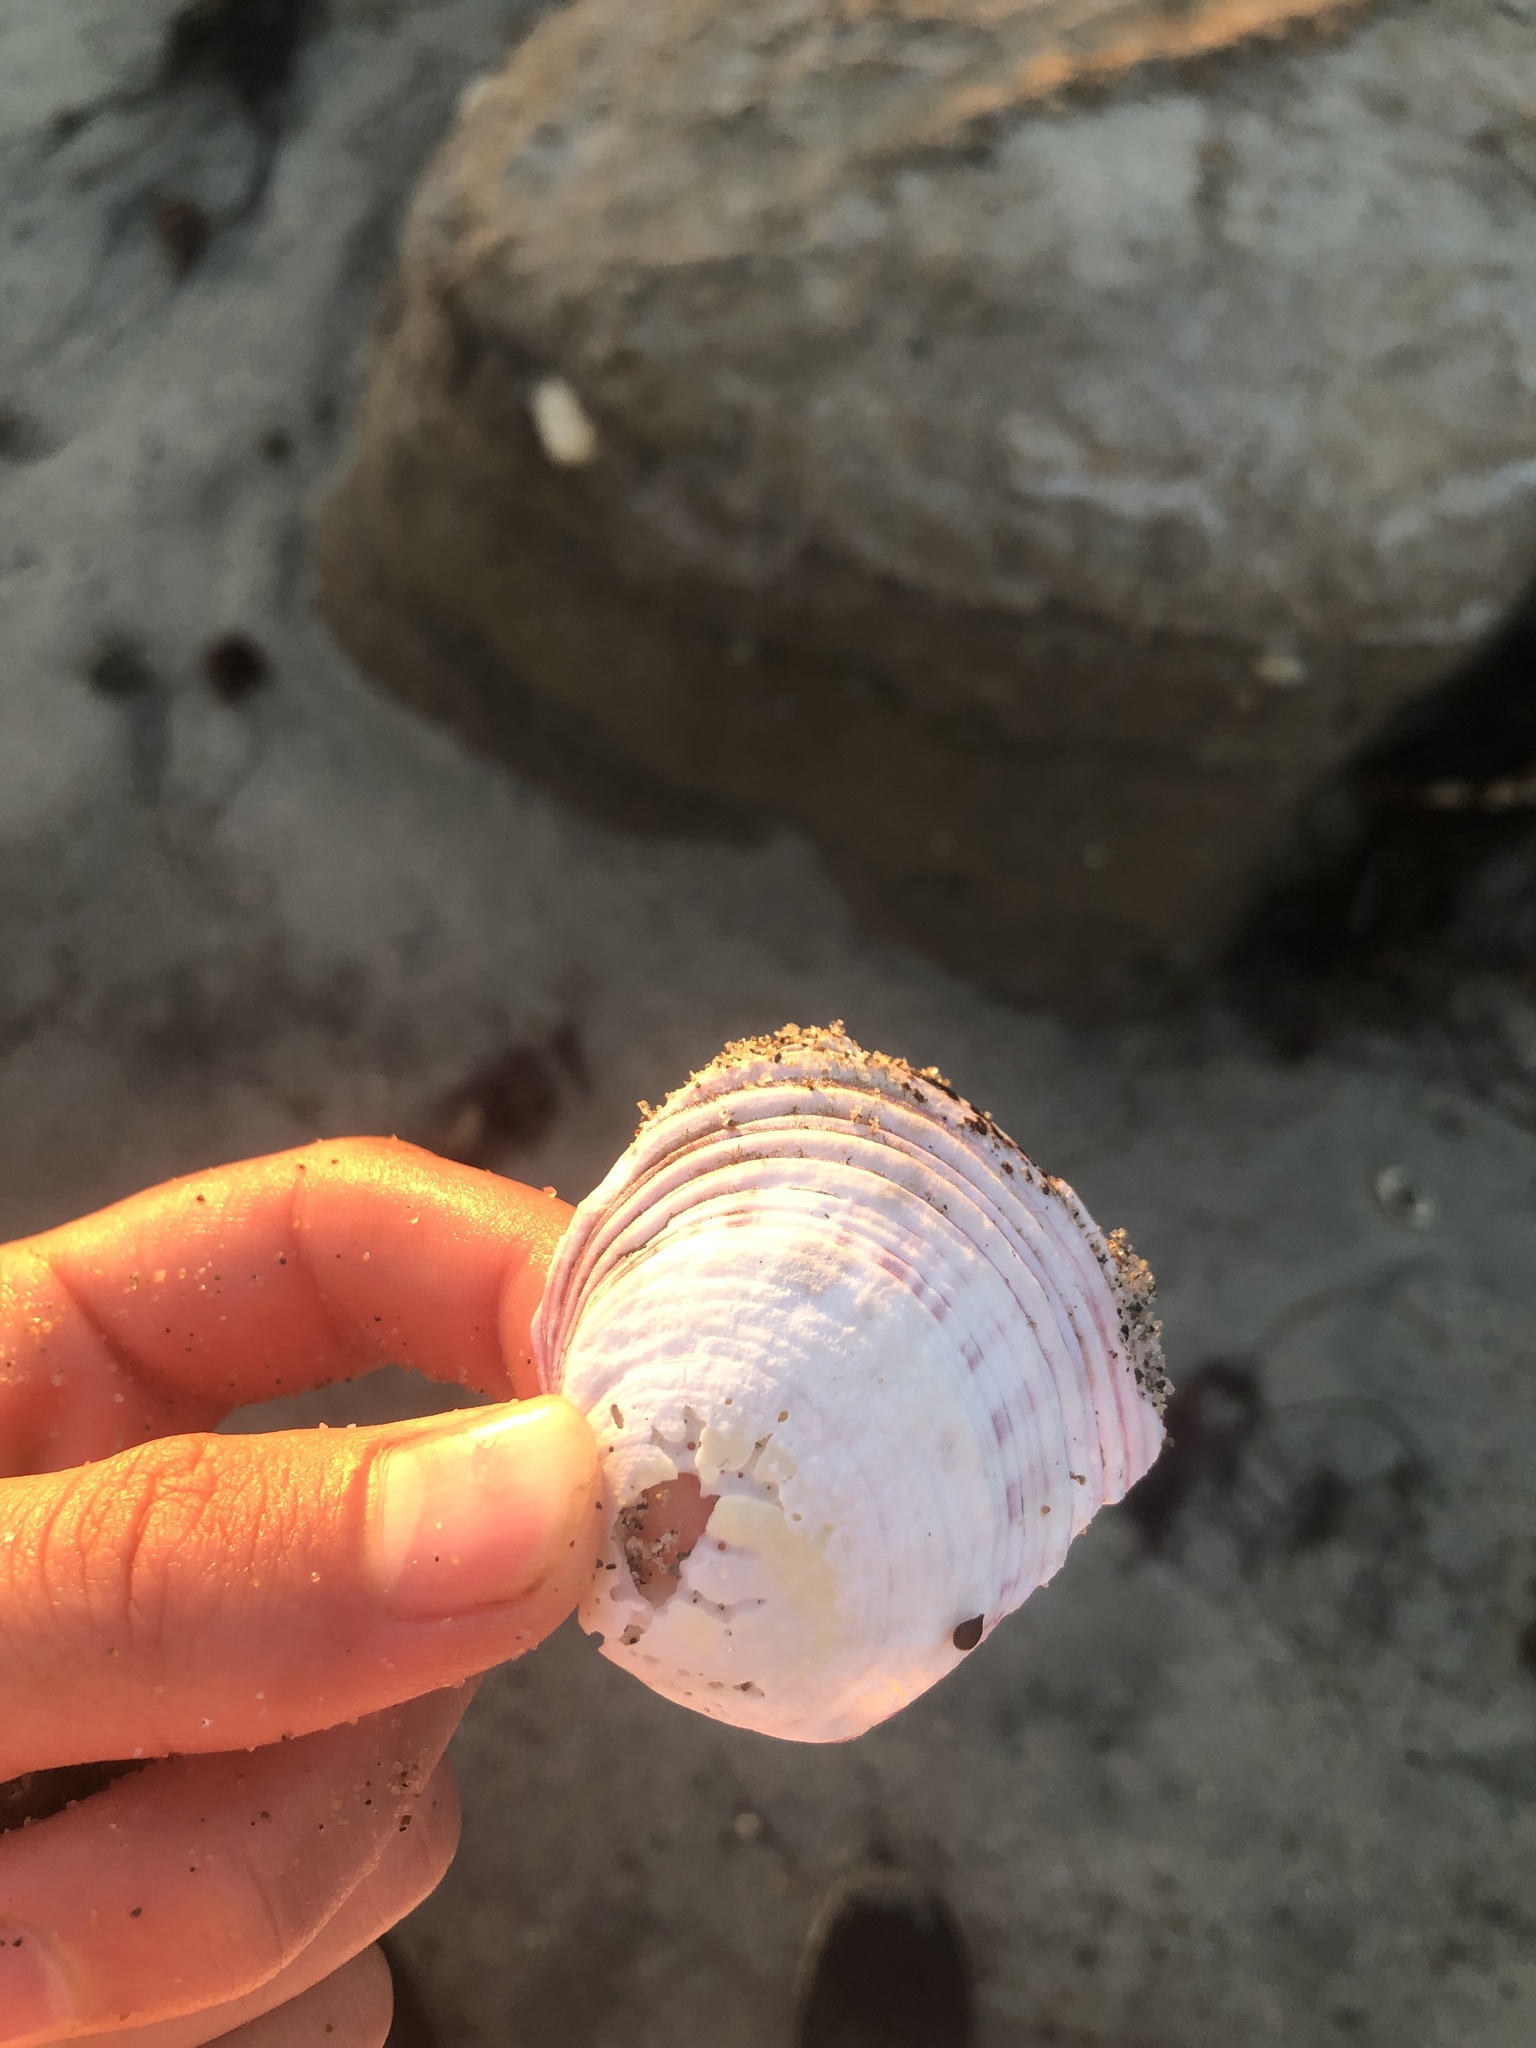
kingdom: Animalia
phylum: Mollusca
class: Bivalvia
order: Cardiida
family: Semelidae
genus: Semele
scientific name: Semele decisa
